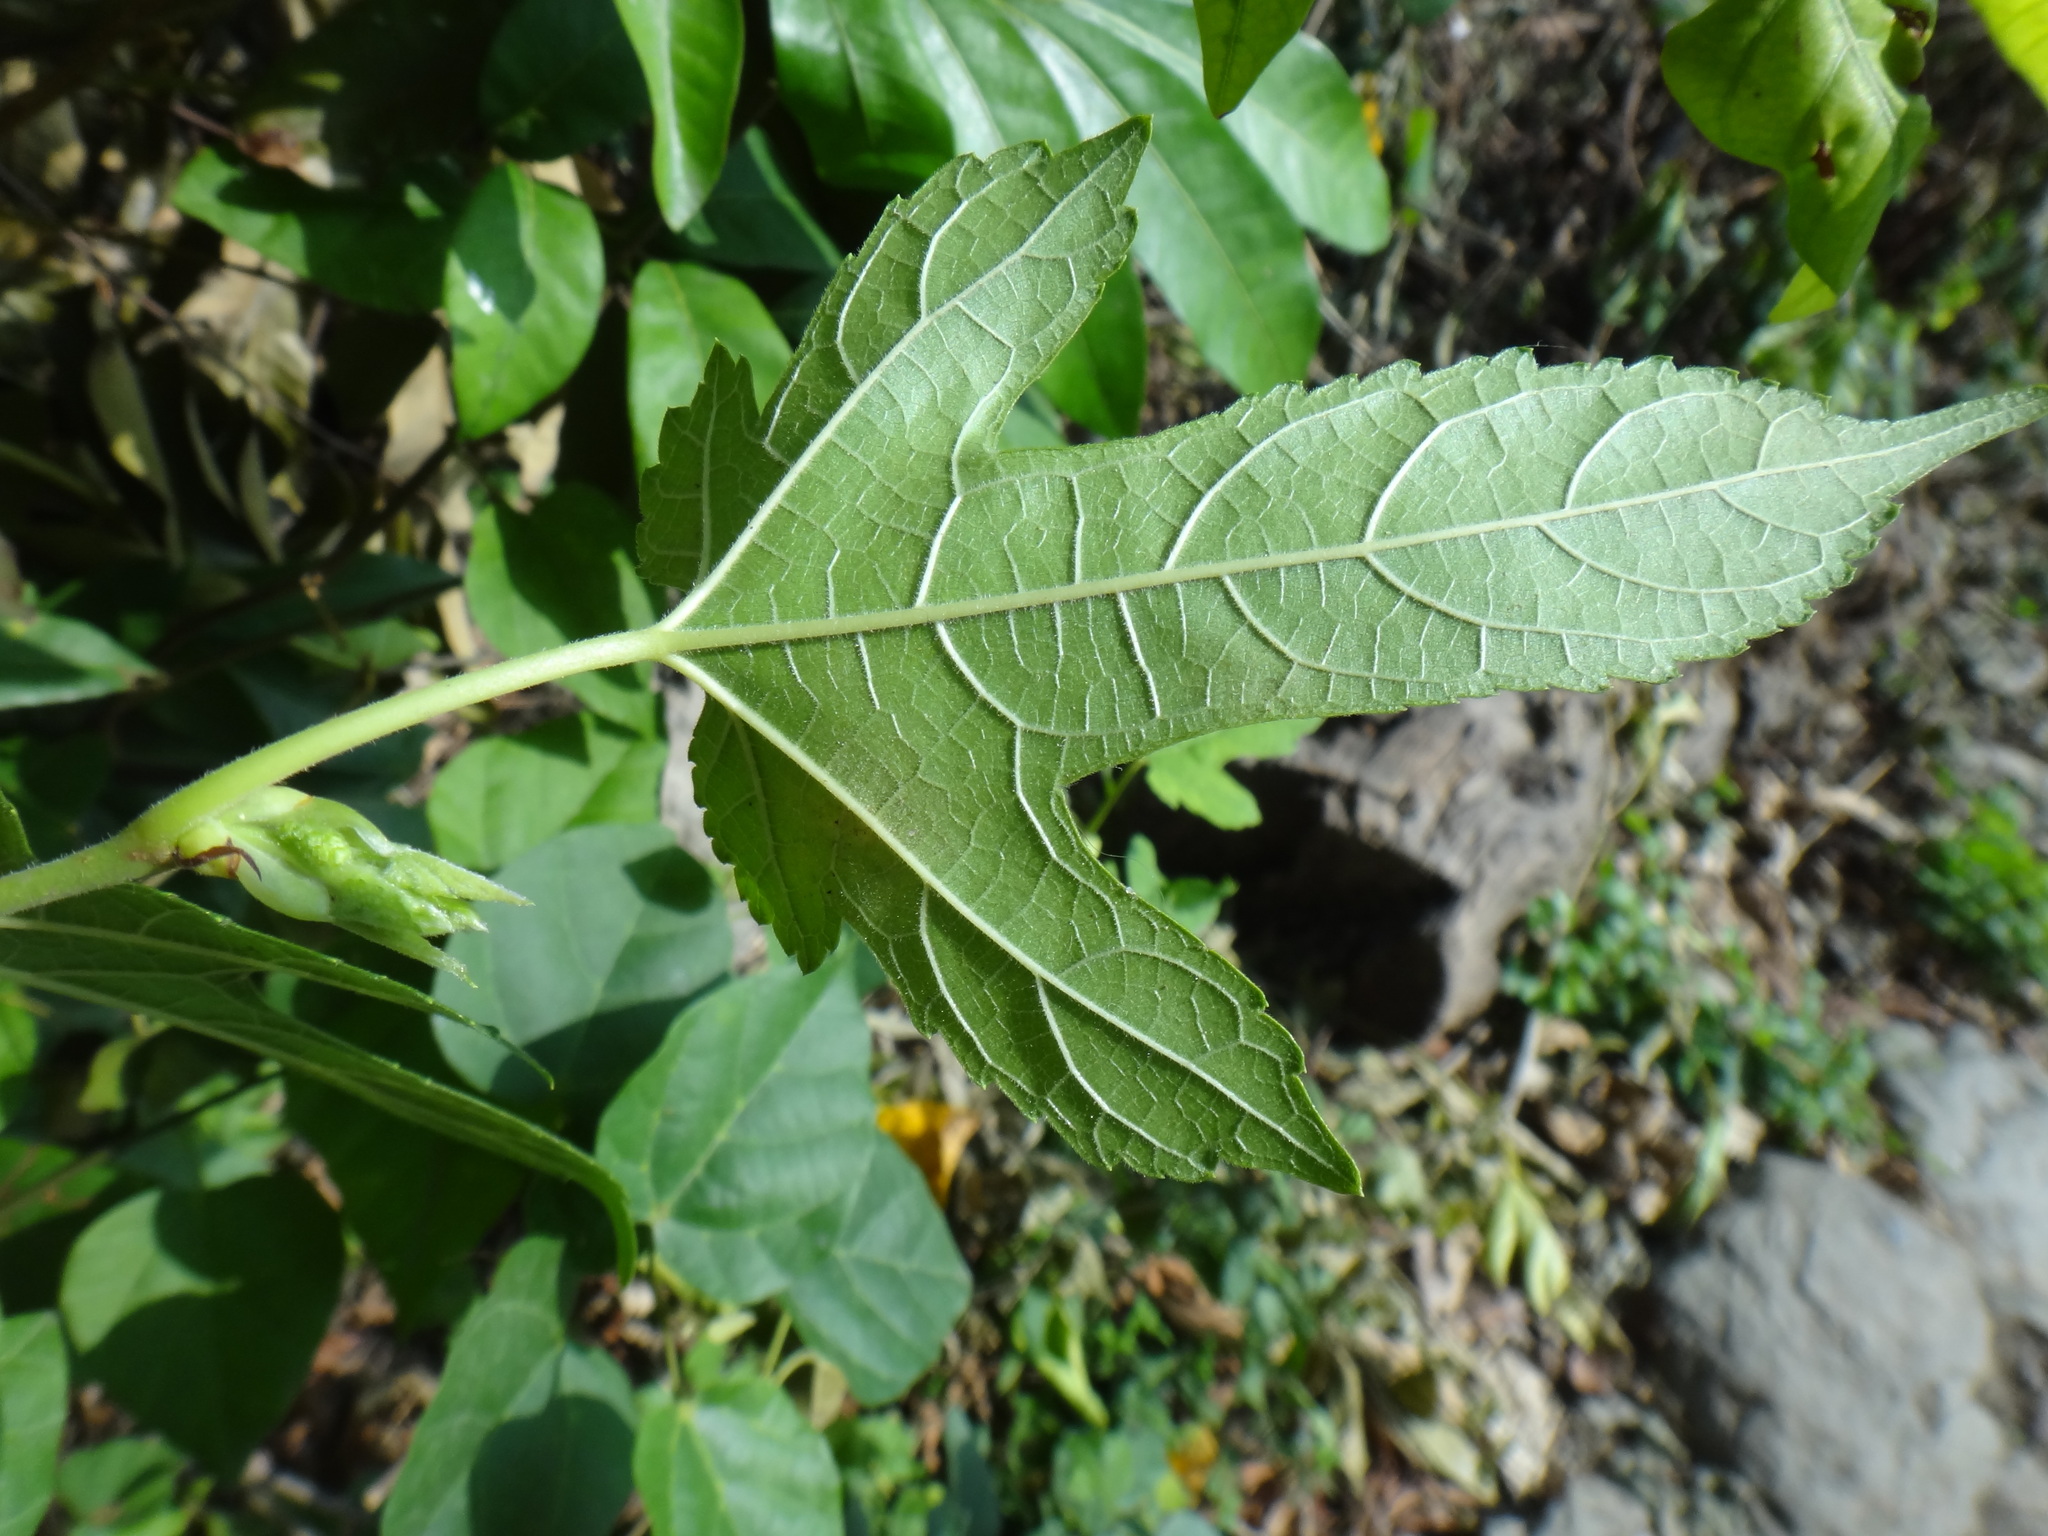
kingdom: Plantae
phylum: Tracheophyta
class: Magnoliopsida
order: Rosales
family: Moraceae
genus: Morus
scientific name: Morus indica
